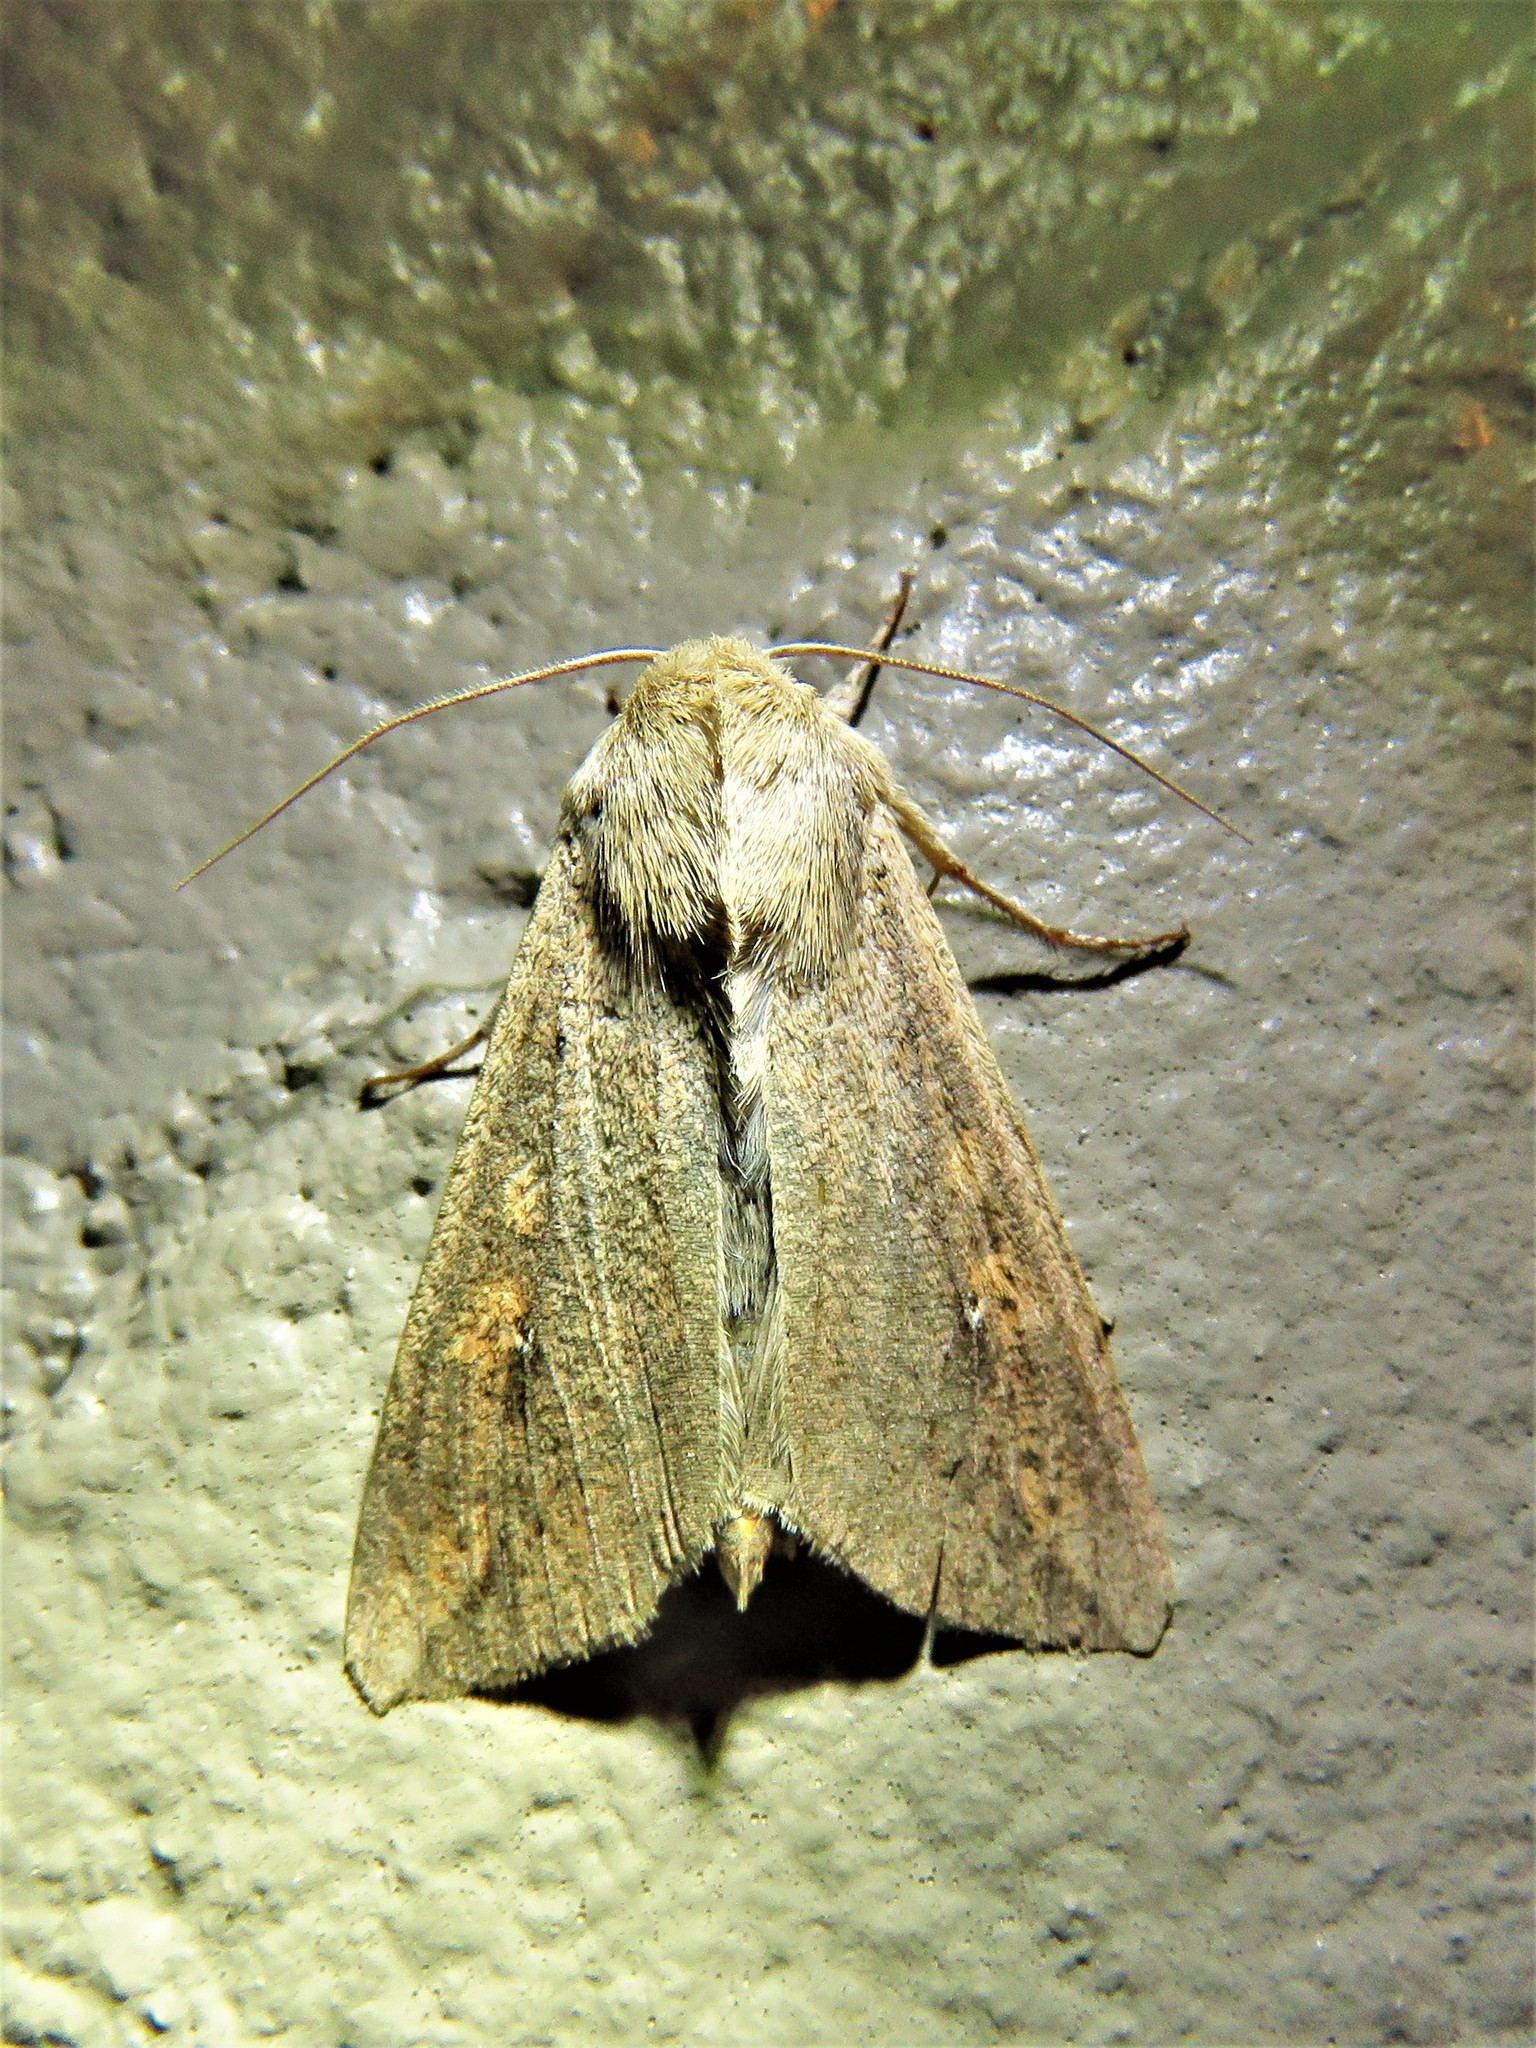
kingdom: Animalia
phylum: Arthropoda
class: Insecta
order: Lepidoptera
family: Noctuidae
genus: Mythimna
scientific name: Mythimna unipuncta
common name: White-speck
